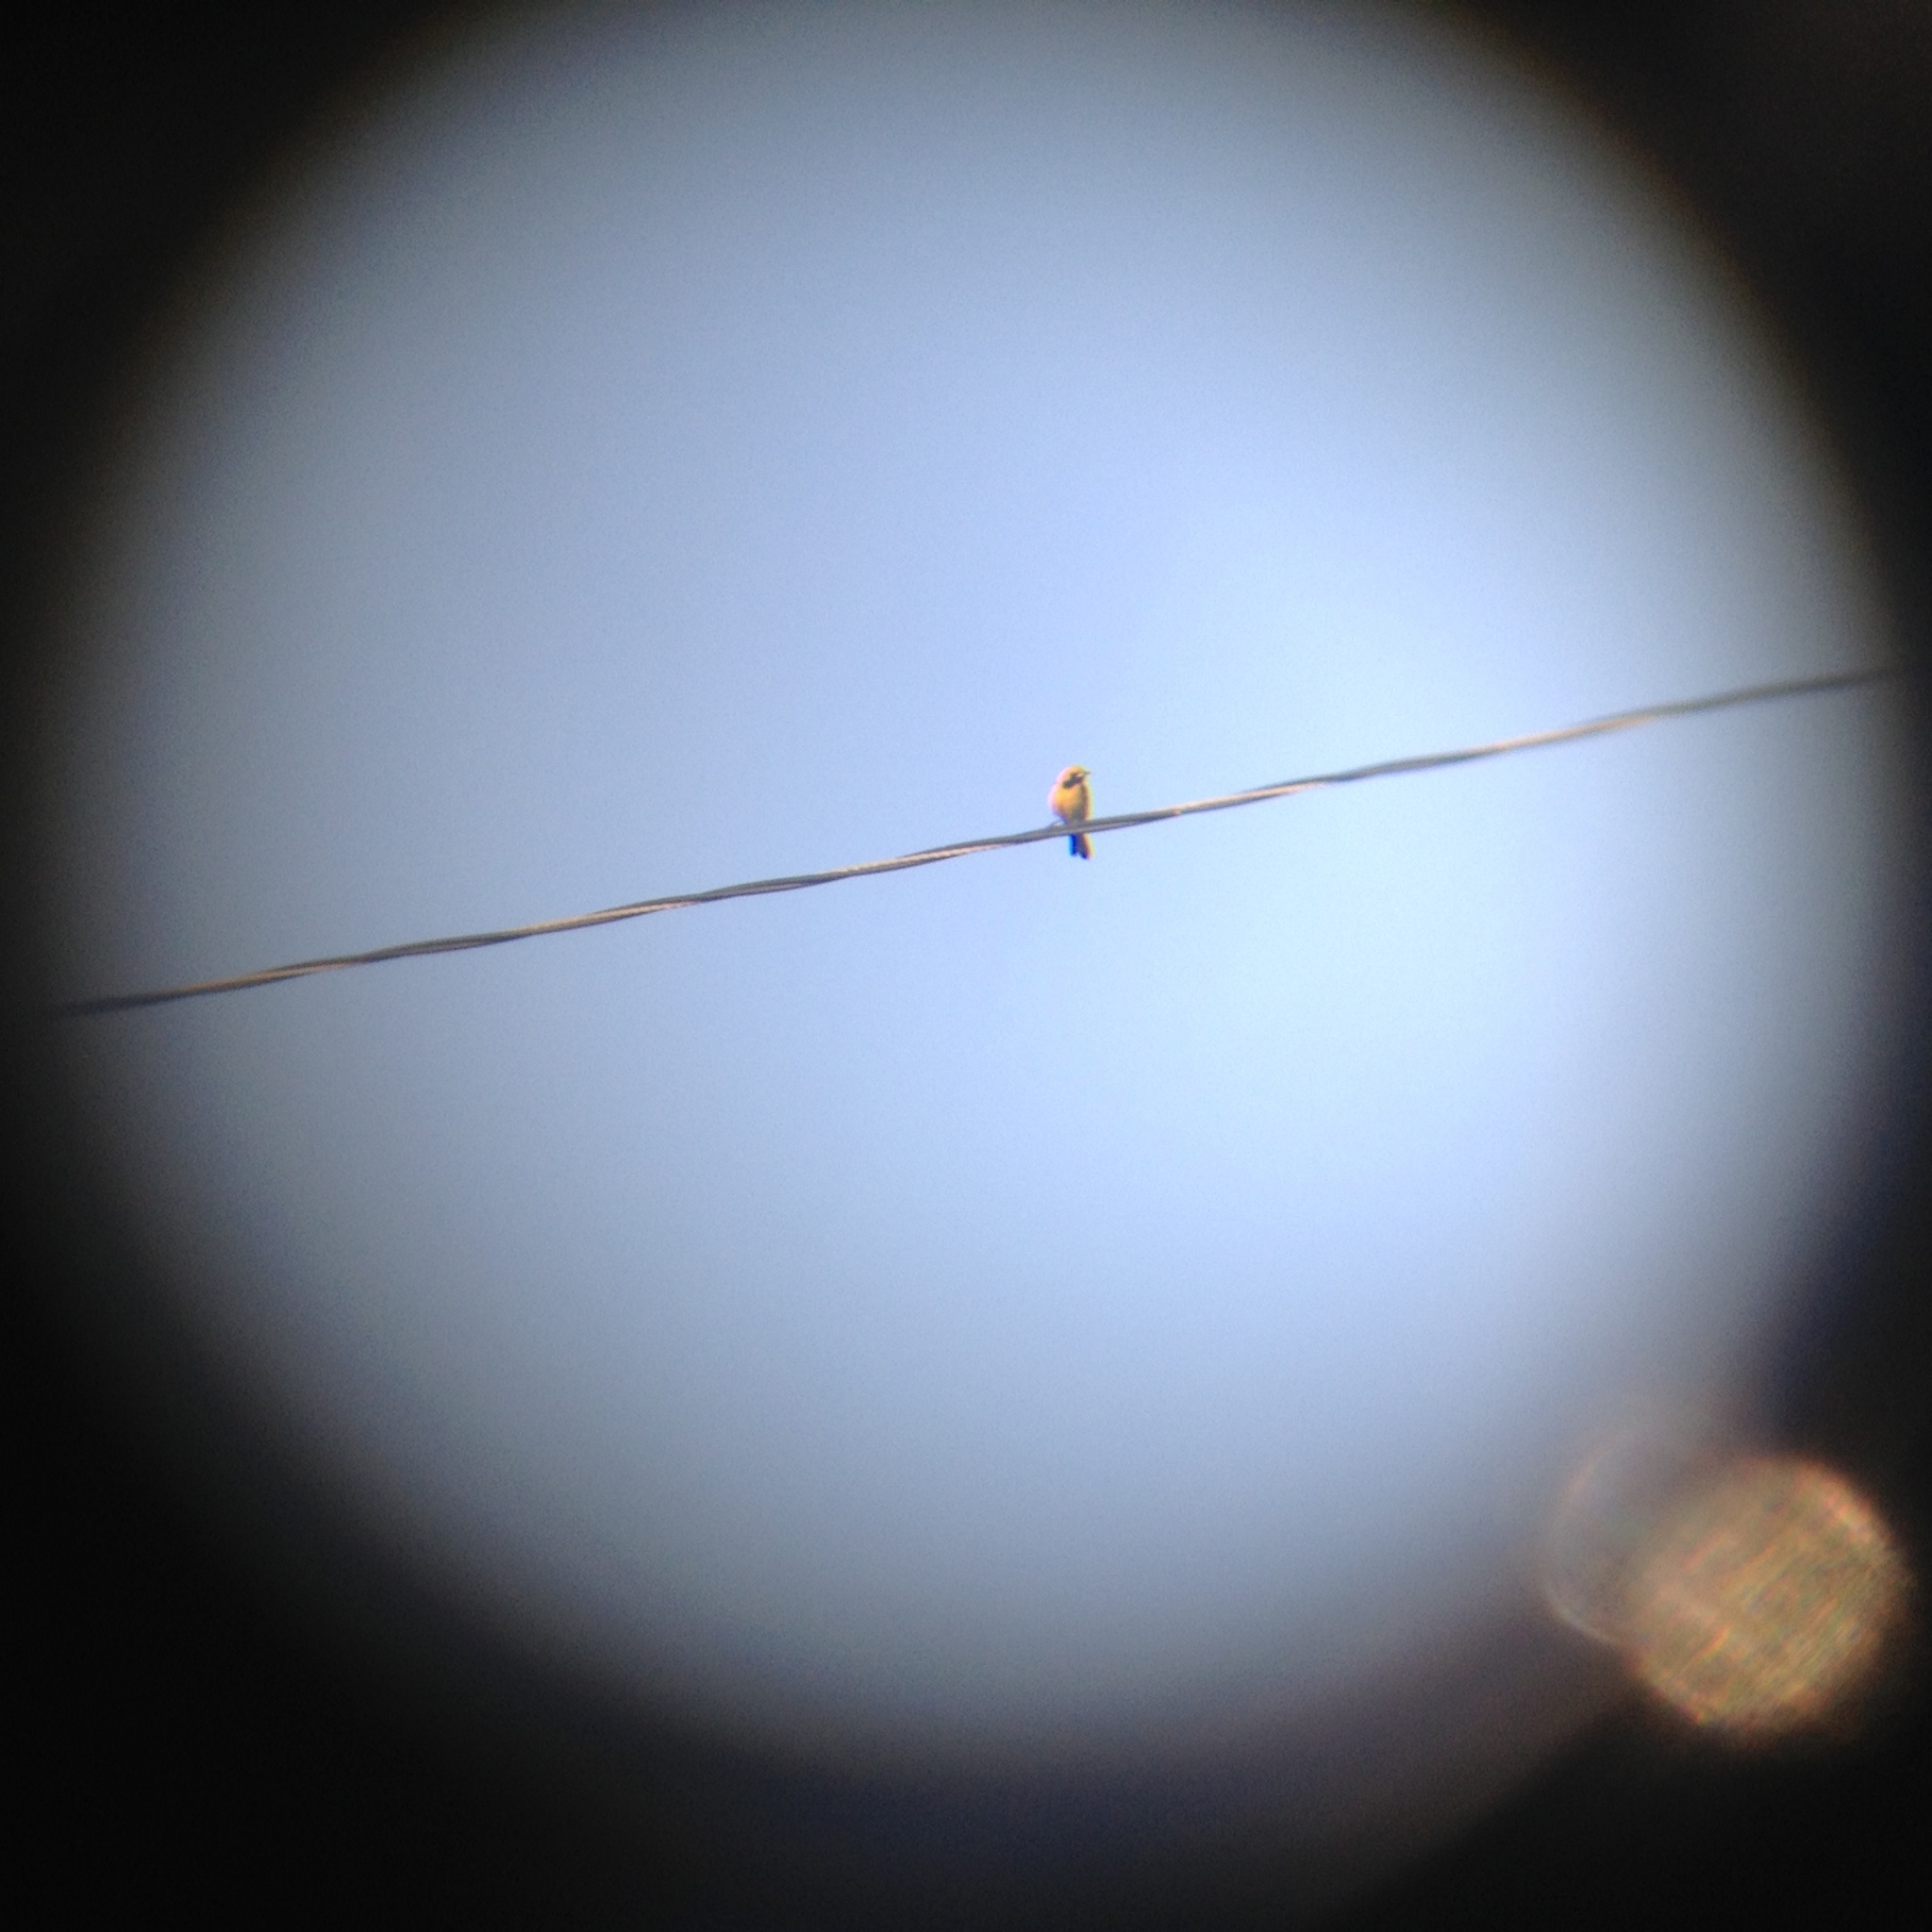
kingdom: Animalia
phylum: Chordata
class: Aves
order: Passeriformes
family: Icteridae
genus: Icterus
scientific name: Icterus cucullatus
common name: Hooded oriole
